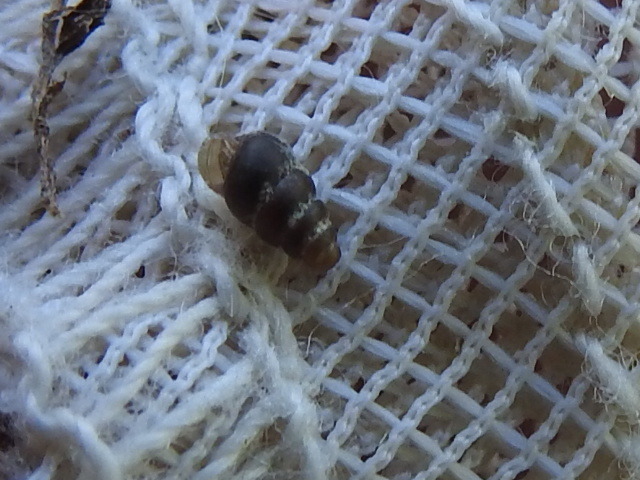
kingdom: Animalia
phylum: Mollusca
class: Gastropoda
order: Stylommatophora
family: Pupillidae
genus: Pupoides
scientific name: Pupoides nitidulus
